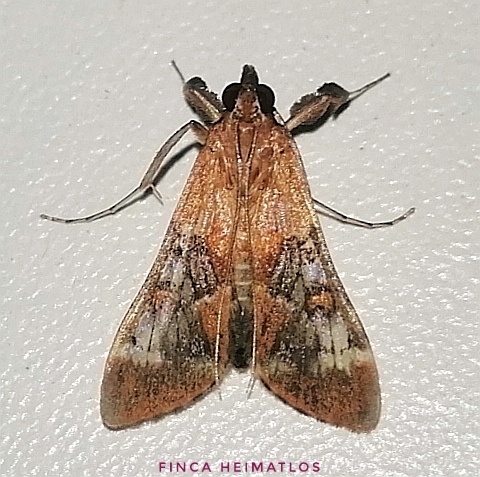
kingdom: Animalia
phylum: Arthropoda
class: Insecta
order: Lepidoptera
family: Crambidae
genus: Omiodes
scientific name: Omiodes stigmosalis
